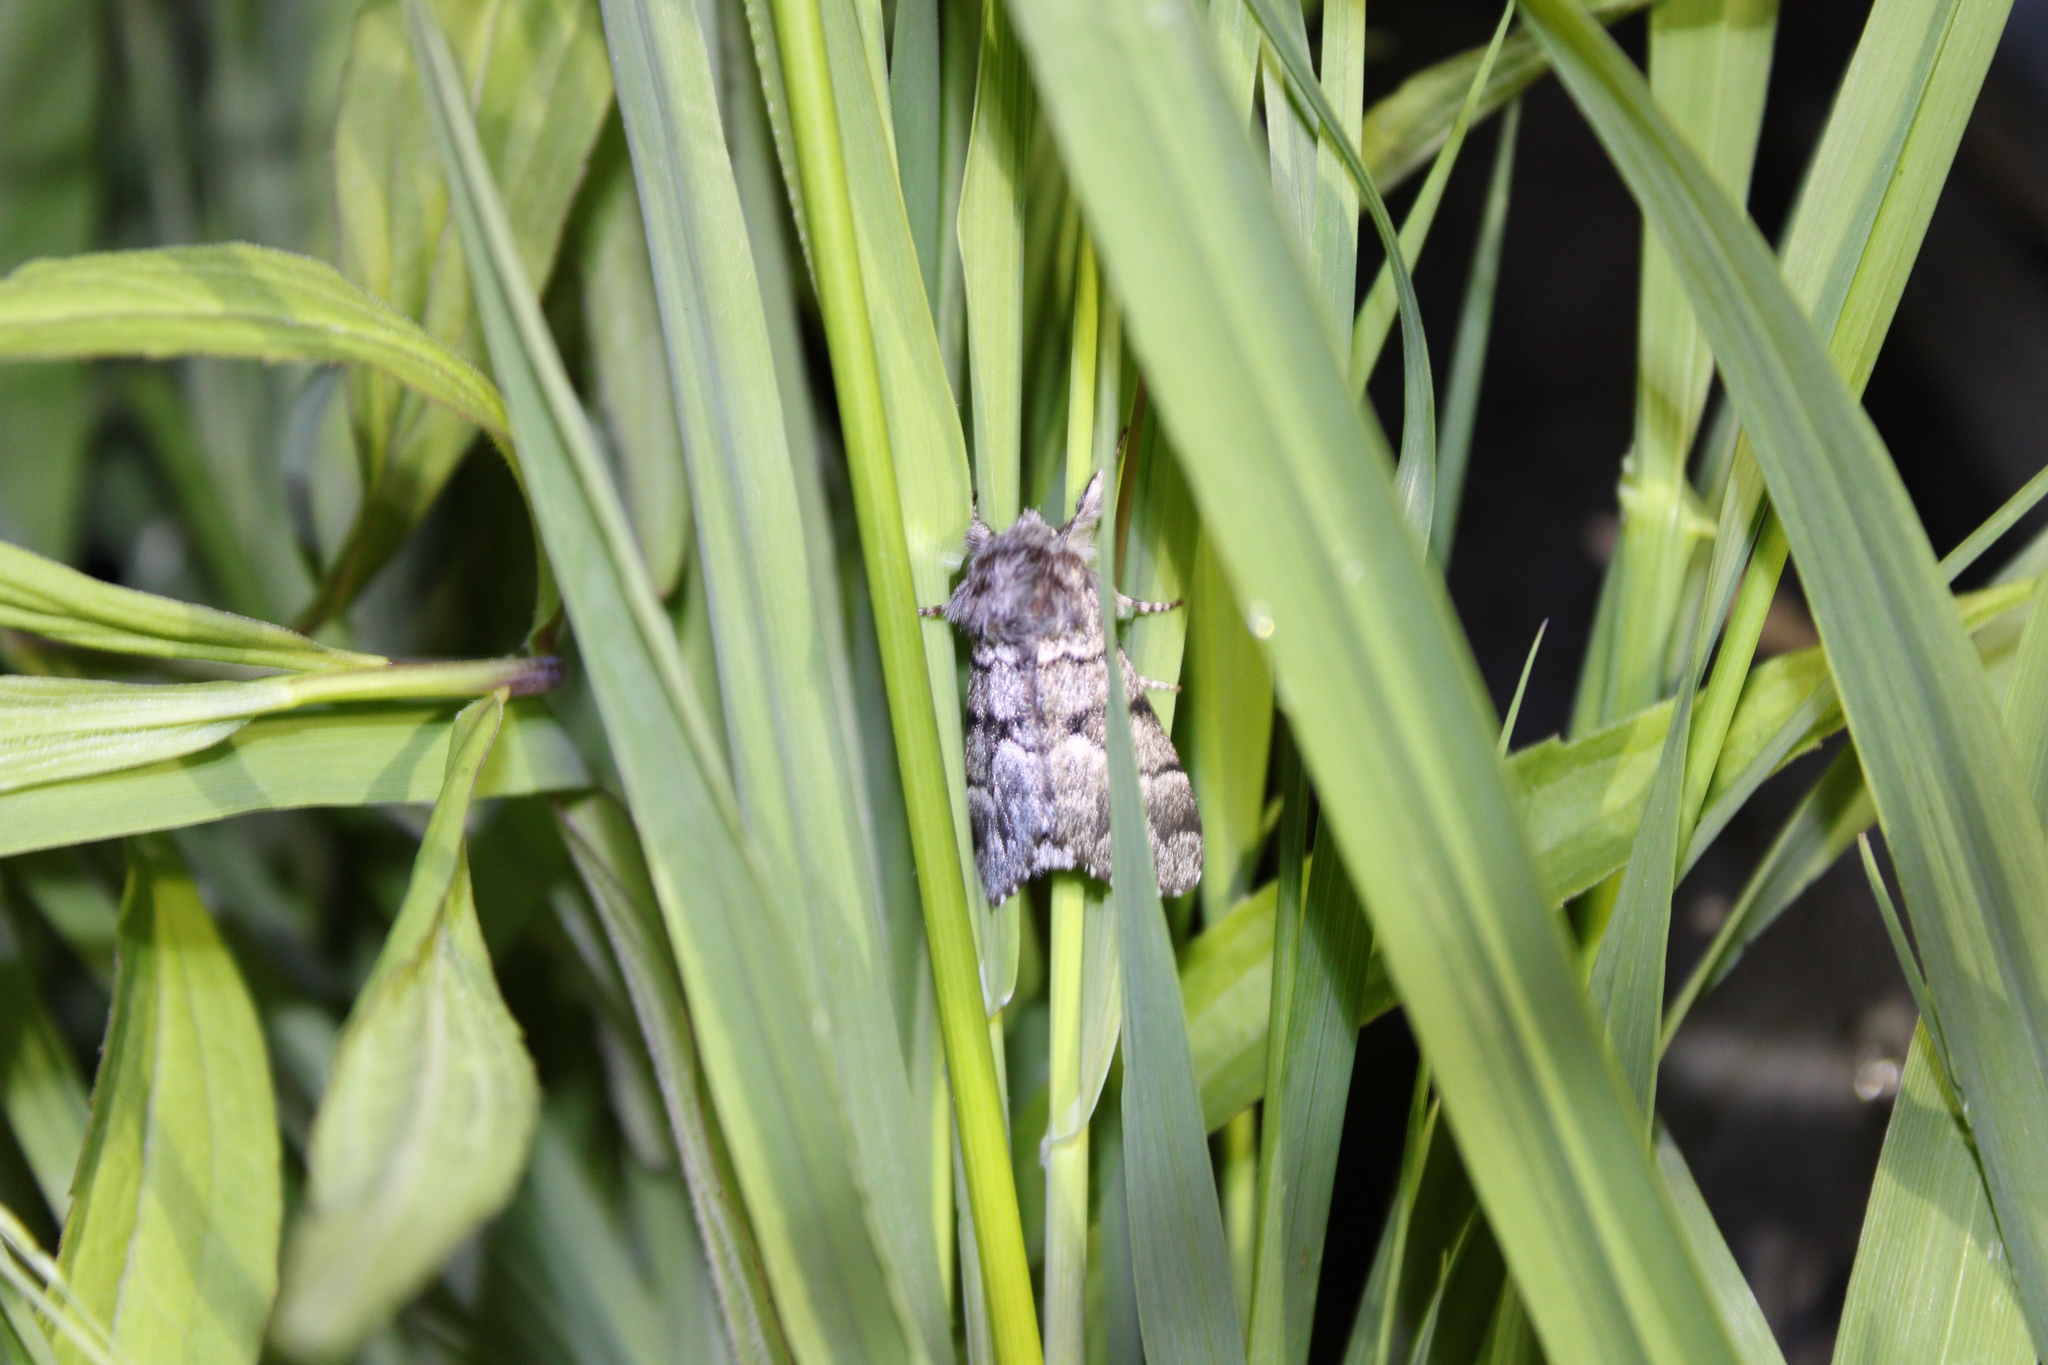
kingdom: Animalia
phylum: Arthropoda
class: Insecta
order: Lepidoptera
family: Noctuidae
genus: Panthea
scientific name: Panthea furcilla
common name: Eastern panthea moth
